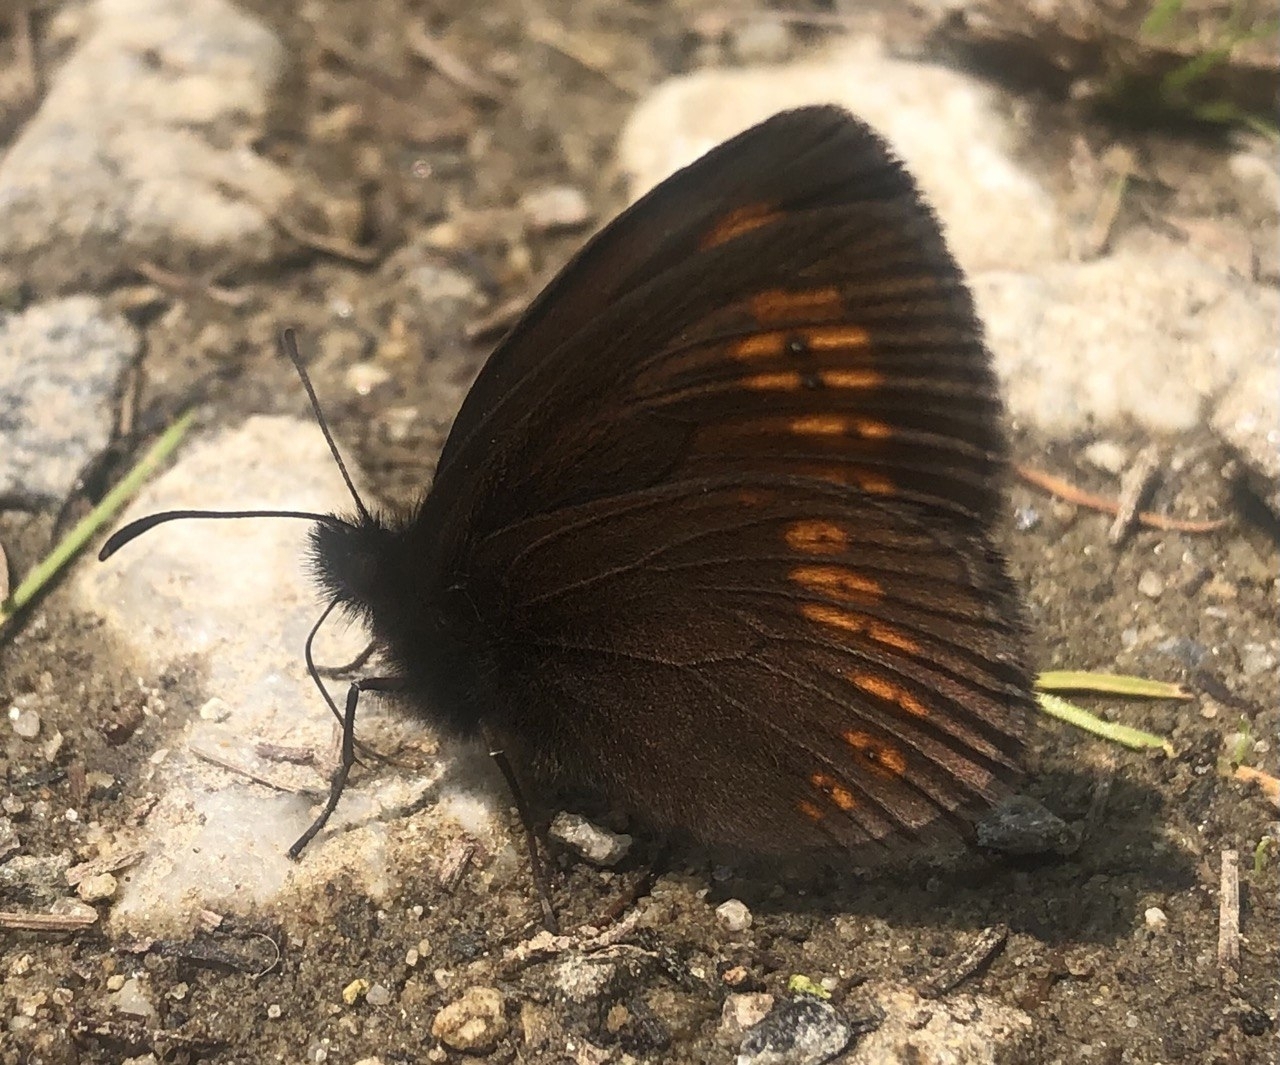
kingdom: Animalia
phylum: Arthropoda
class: Insecta
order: Lepidoptera
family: Nymphalidae
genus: Erebia
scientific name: Erebia alberganus
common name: Almond-eyed ringlet
